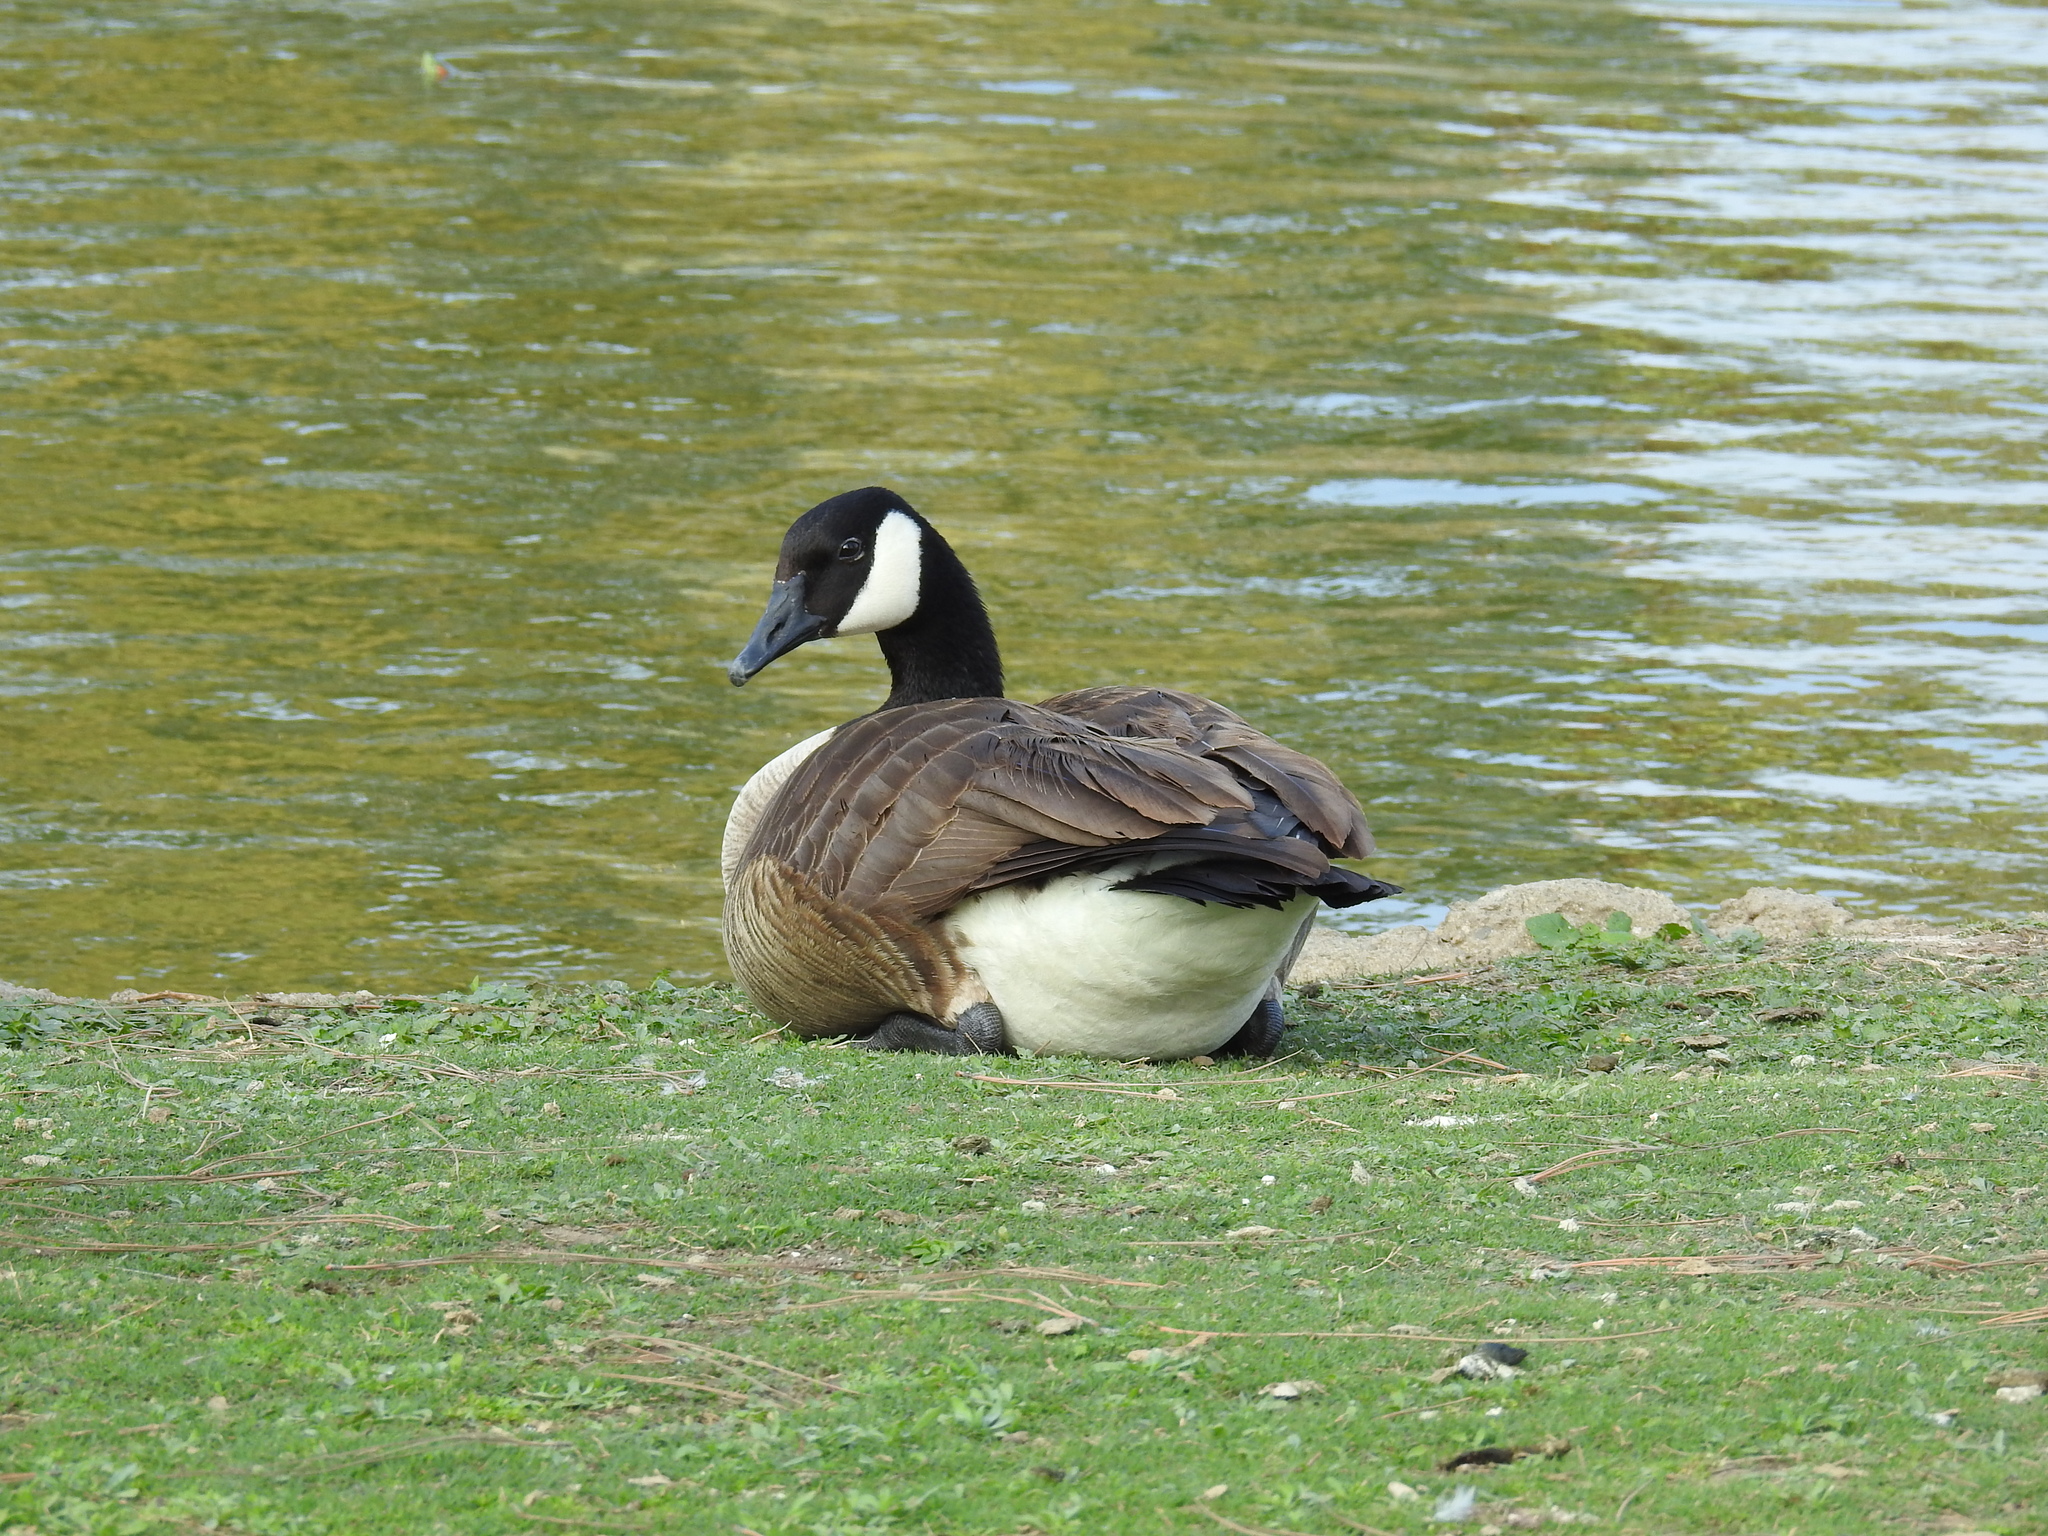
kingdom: Animalia
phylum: Chordata
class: Aves
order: Anseriformes
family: Anatidae
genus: Branta
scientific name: Branta canadensis
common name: Canada goose
